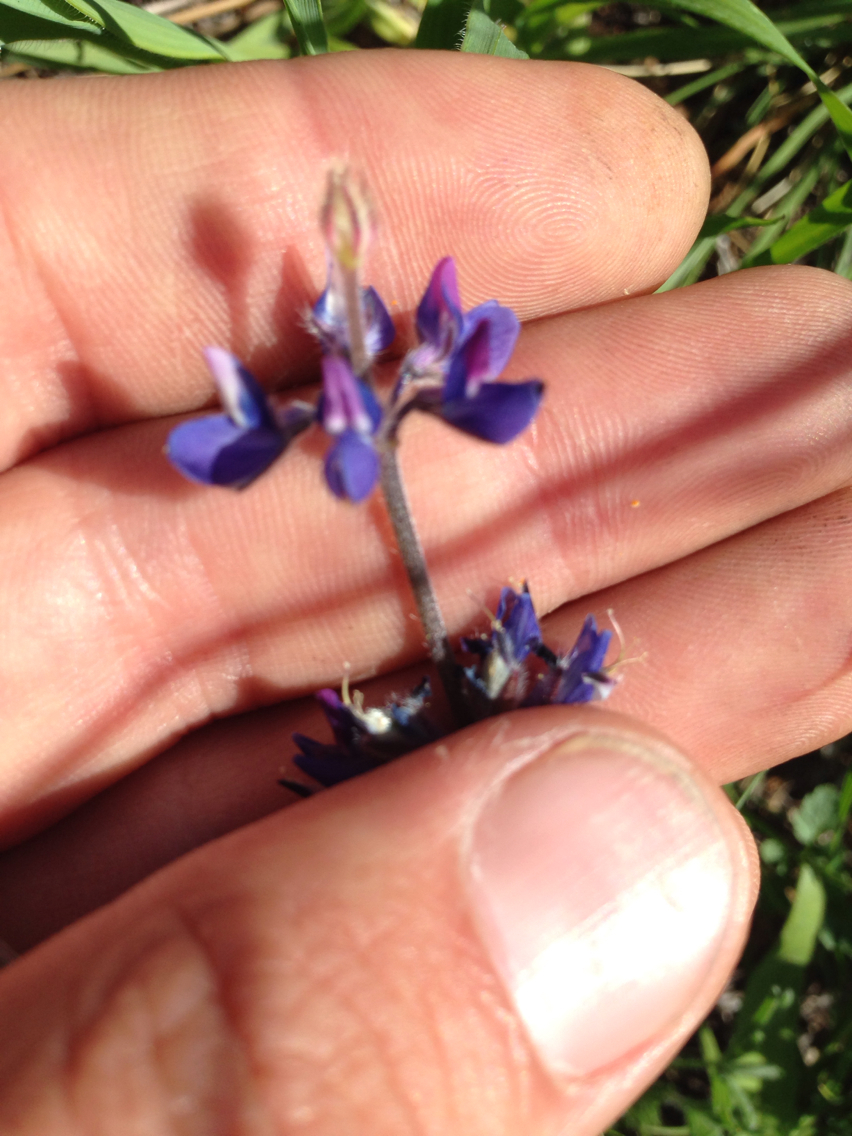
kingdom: Plantae
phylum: Tracheophyta
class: Magnoliopsida
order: Fabales
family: Fabaceae
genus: Lupinus
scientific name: Lupinus bicolor
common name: Miniature lupine
